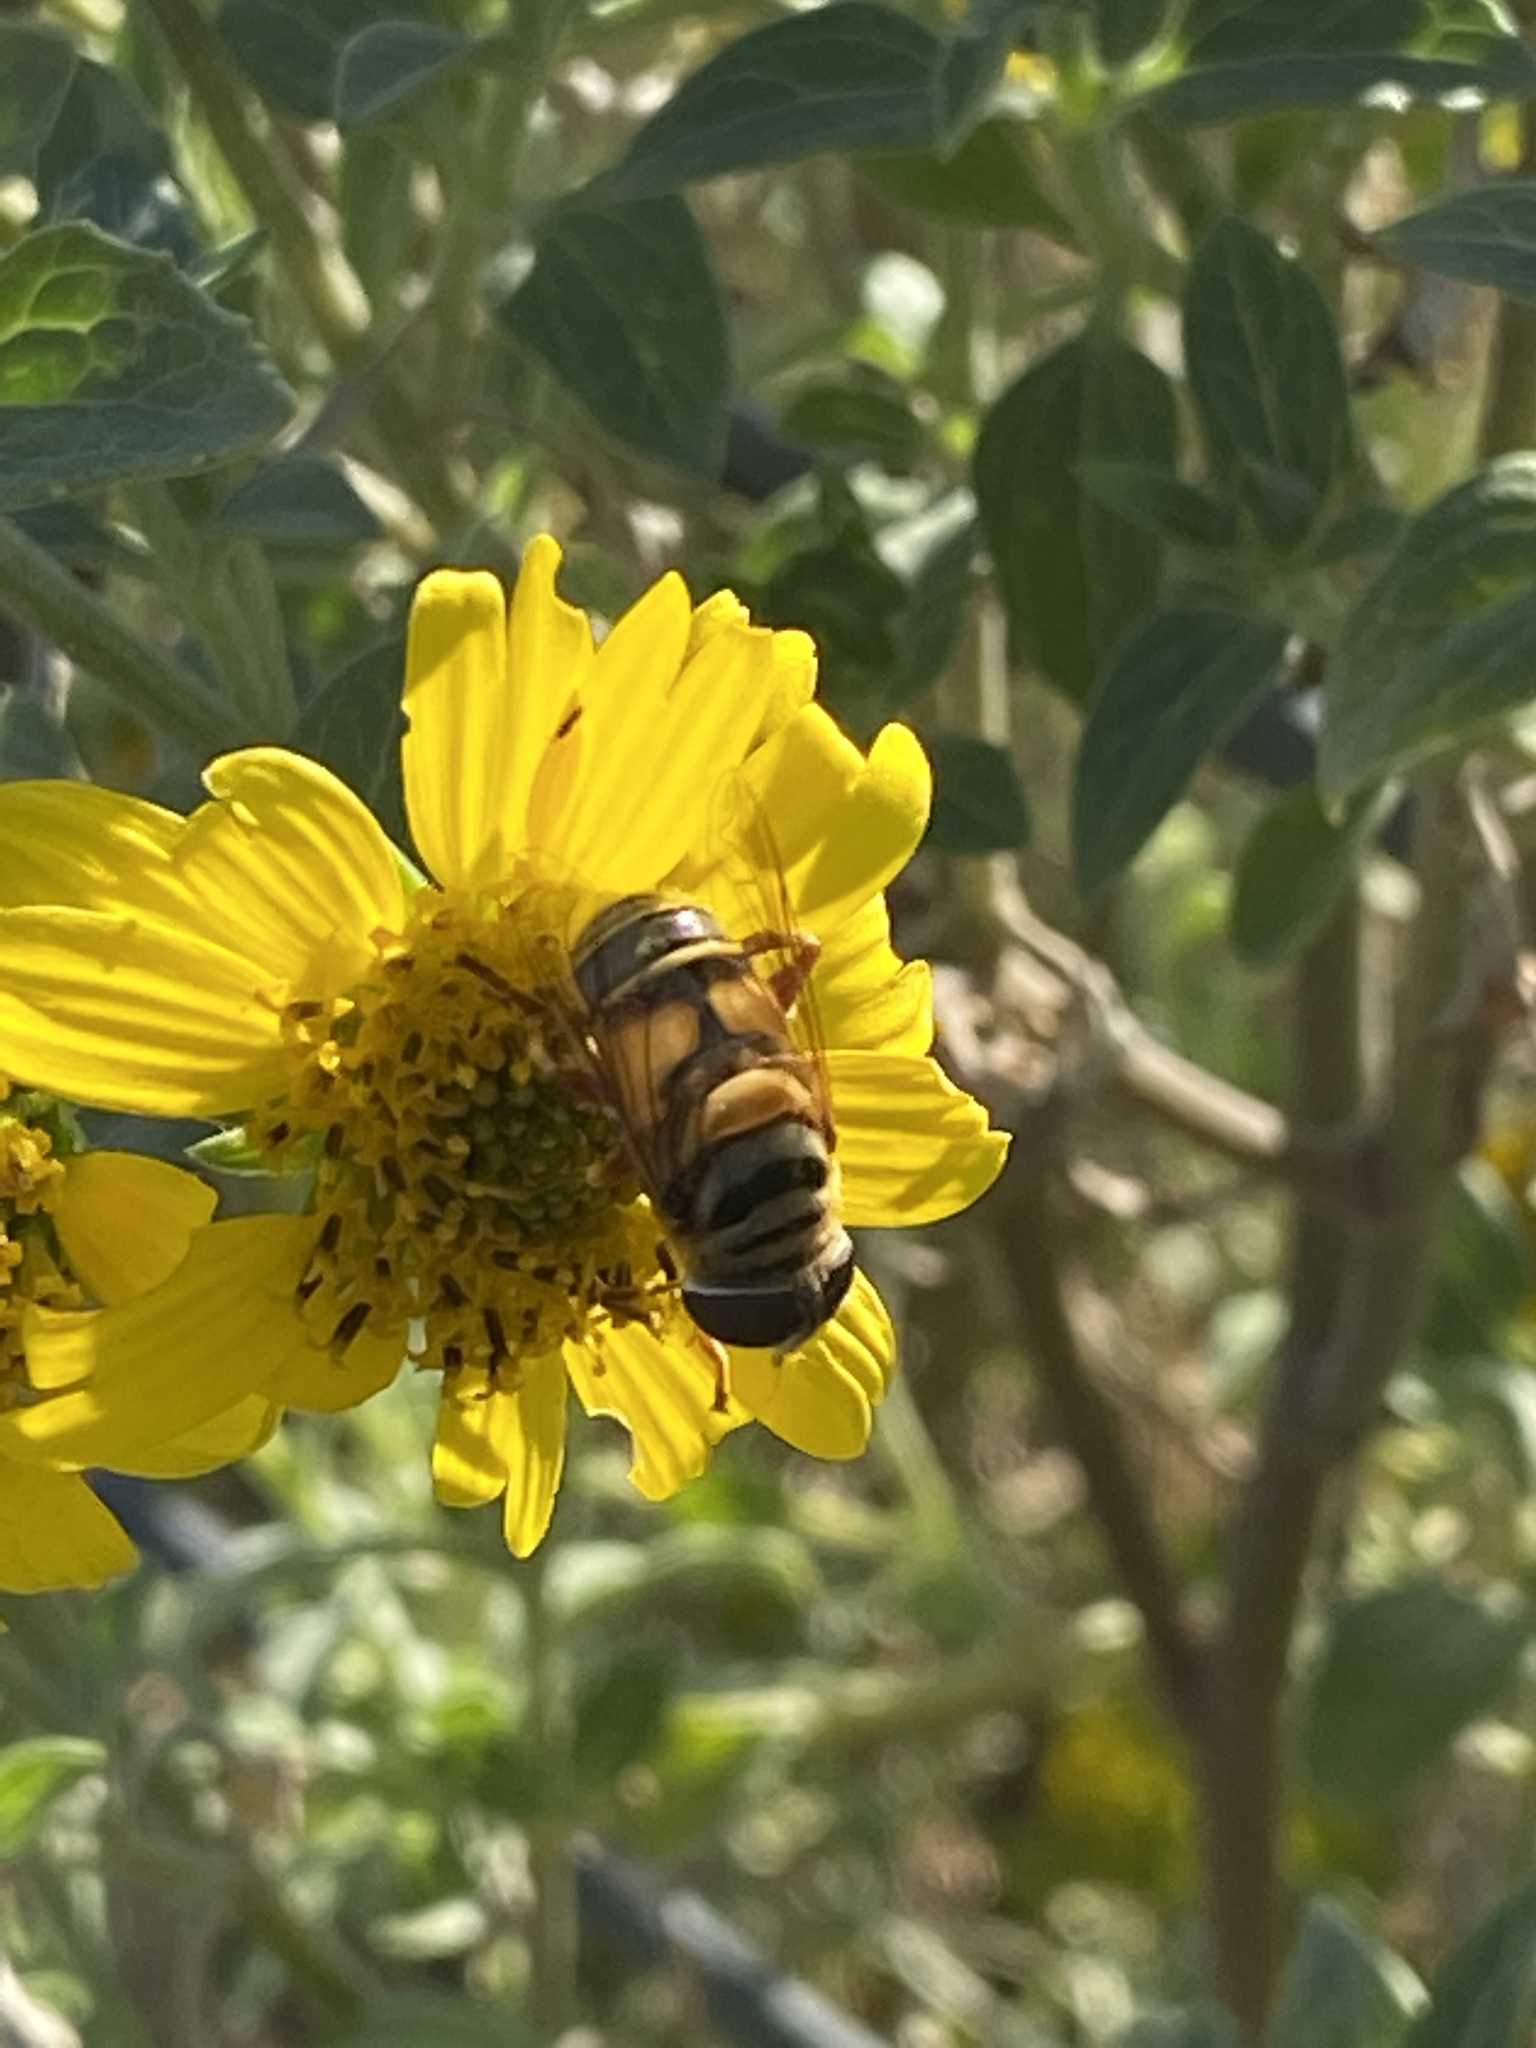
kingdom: Animalia
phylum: Arthropoda
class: Insecta
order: Diptera
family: Syrphidae
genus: Palpada
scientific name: Palpada vinetorum
